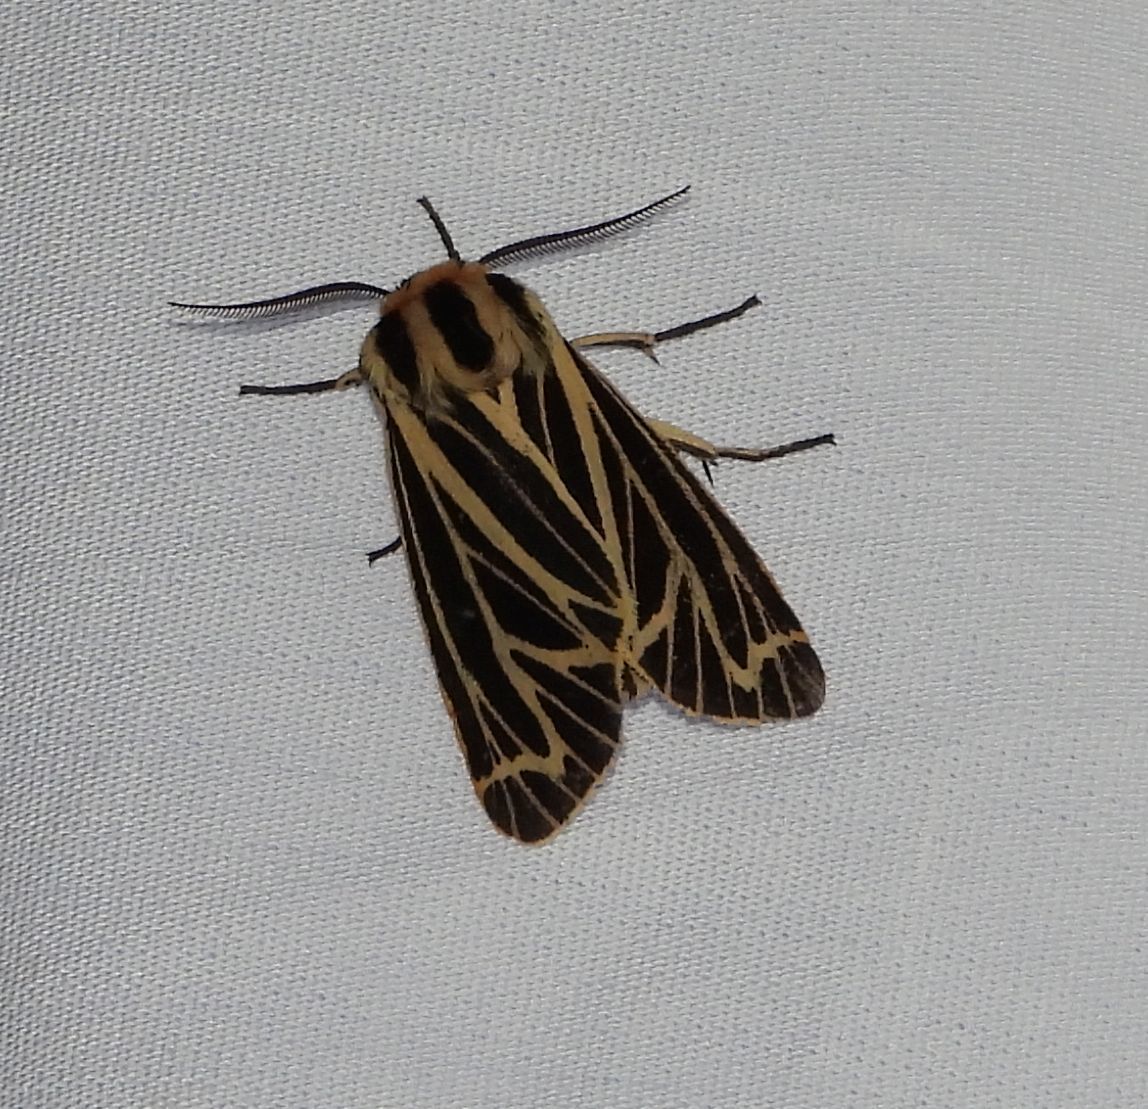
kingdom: Animalia
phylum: Arthropoda
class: Insecta
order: Lepidoptera
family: Erebidae
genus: Grammia
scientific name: Grammia virguncula
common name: Little tiger moth
